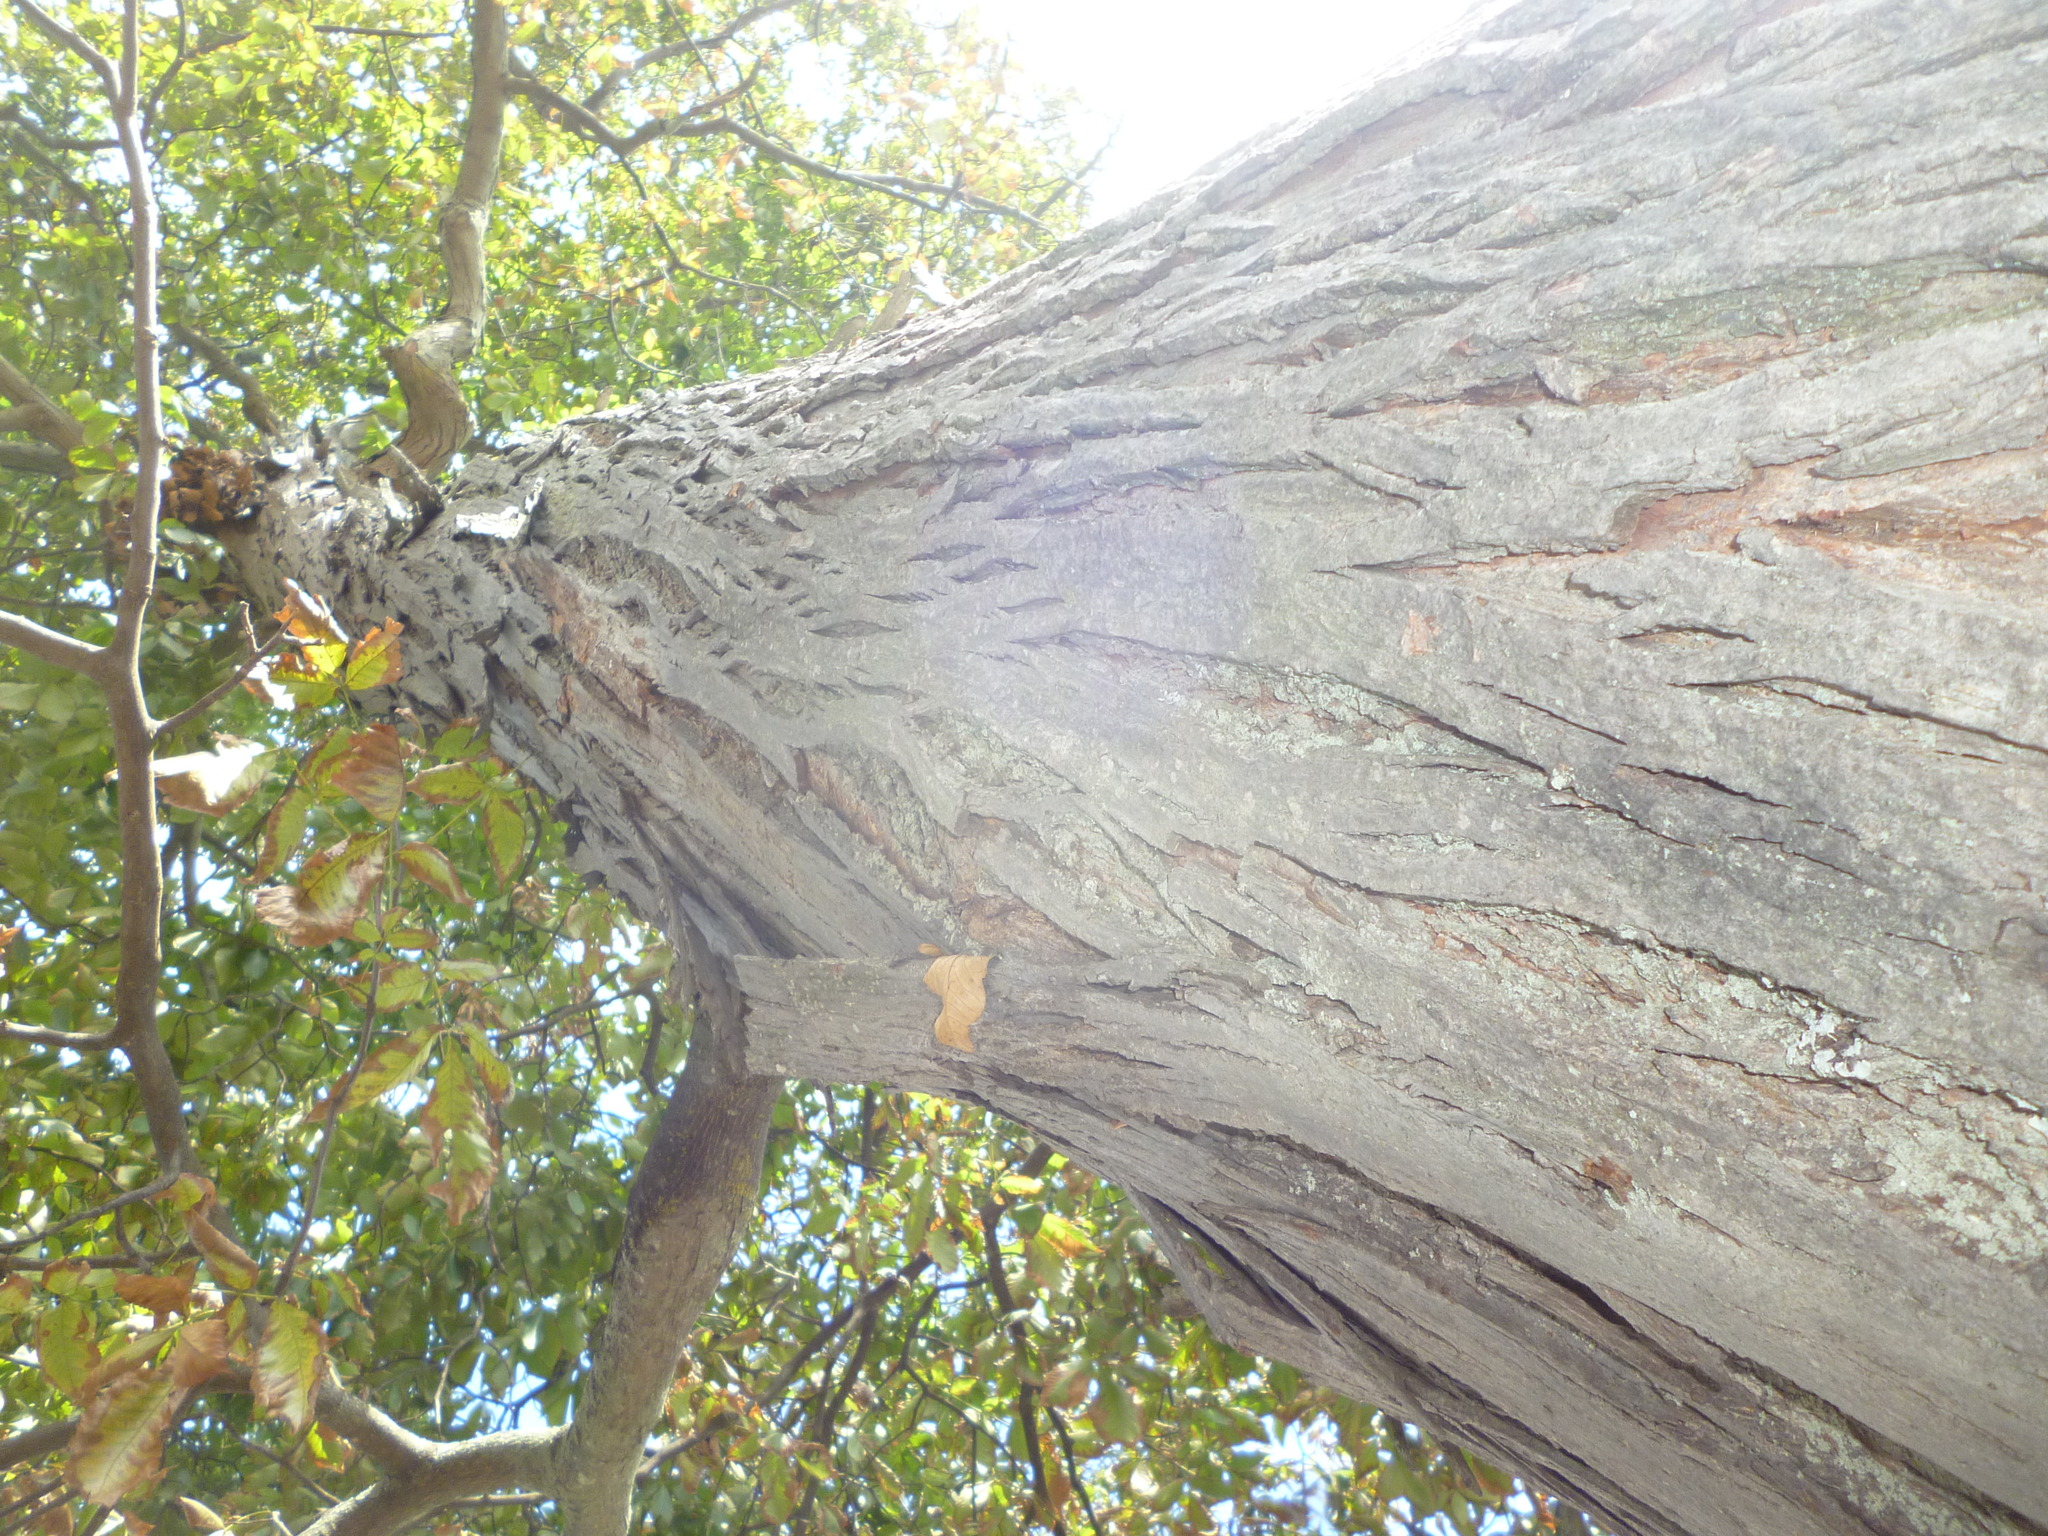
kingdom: Plantae
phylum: Tracheophyta
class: Magnoliopsida
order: Fagales
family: Juglandaceae
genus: Carya
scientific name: Carya ovata
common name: Shagbark hickory
